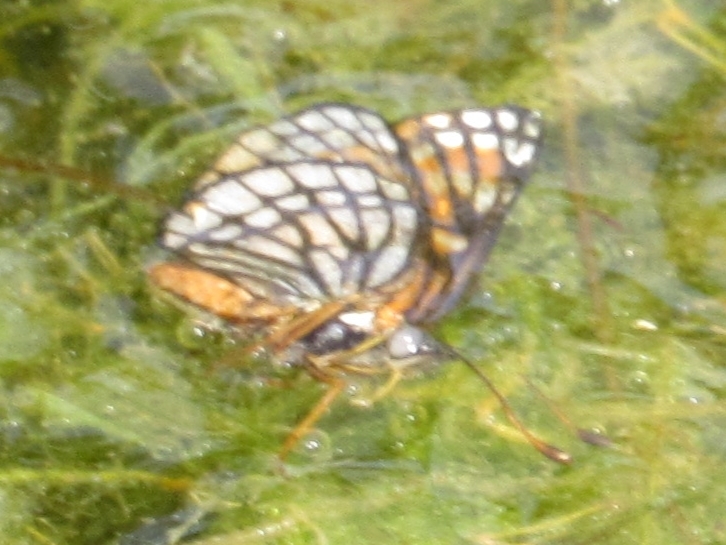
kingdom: Animalia
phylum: Arthropoda
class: Insecta
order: Lepidoptera
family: Nymphalidae
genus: Thessalia
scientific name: Thessalia leanira
